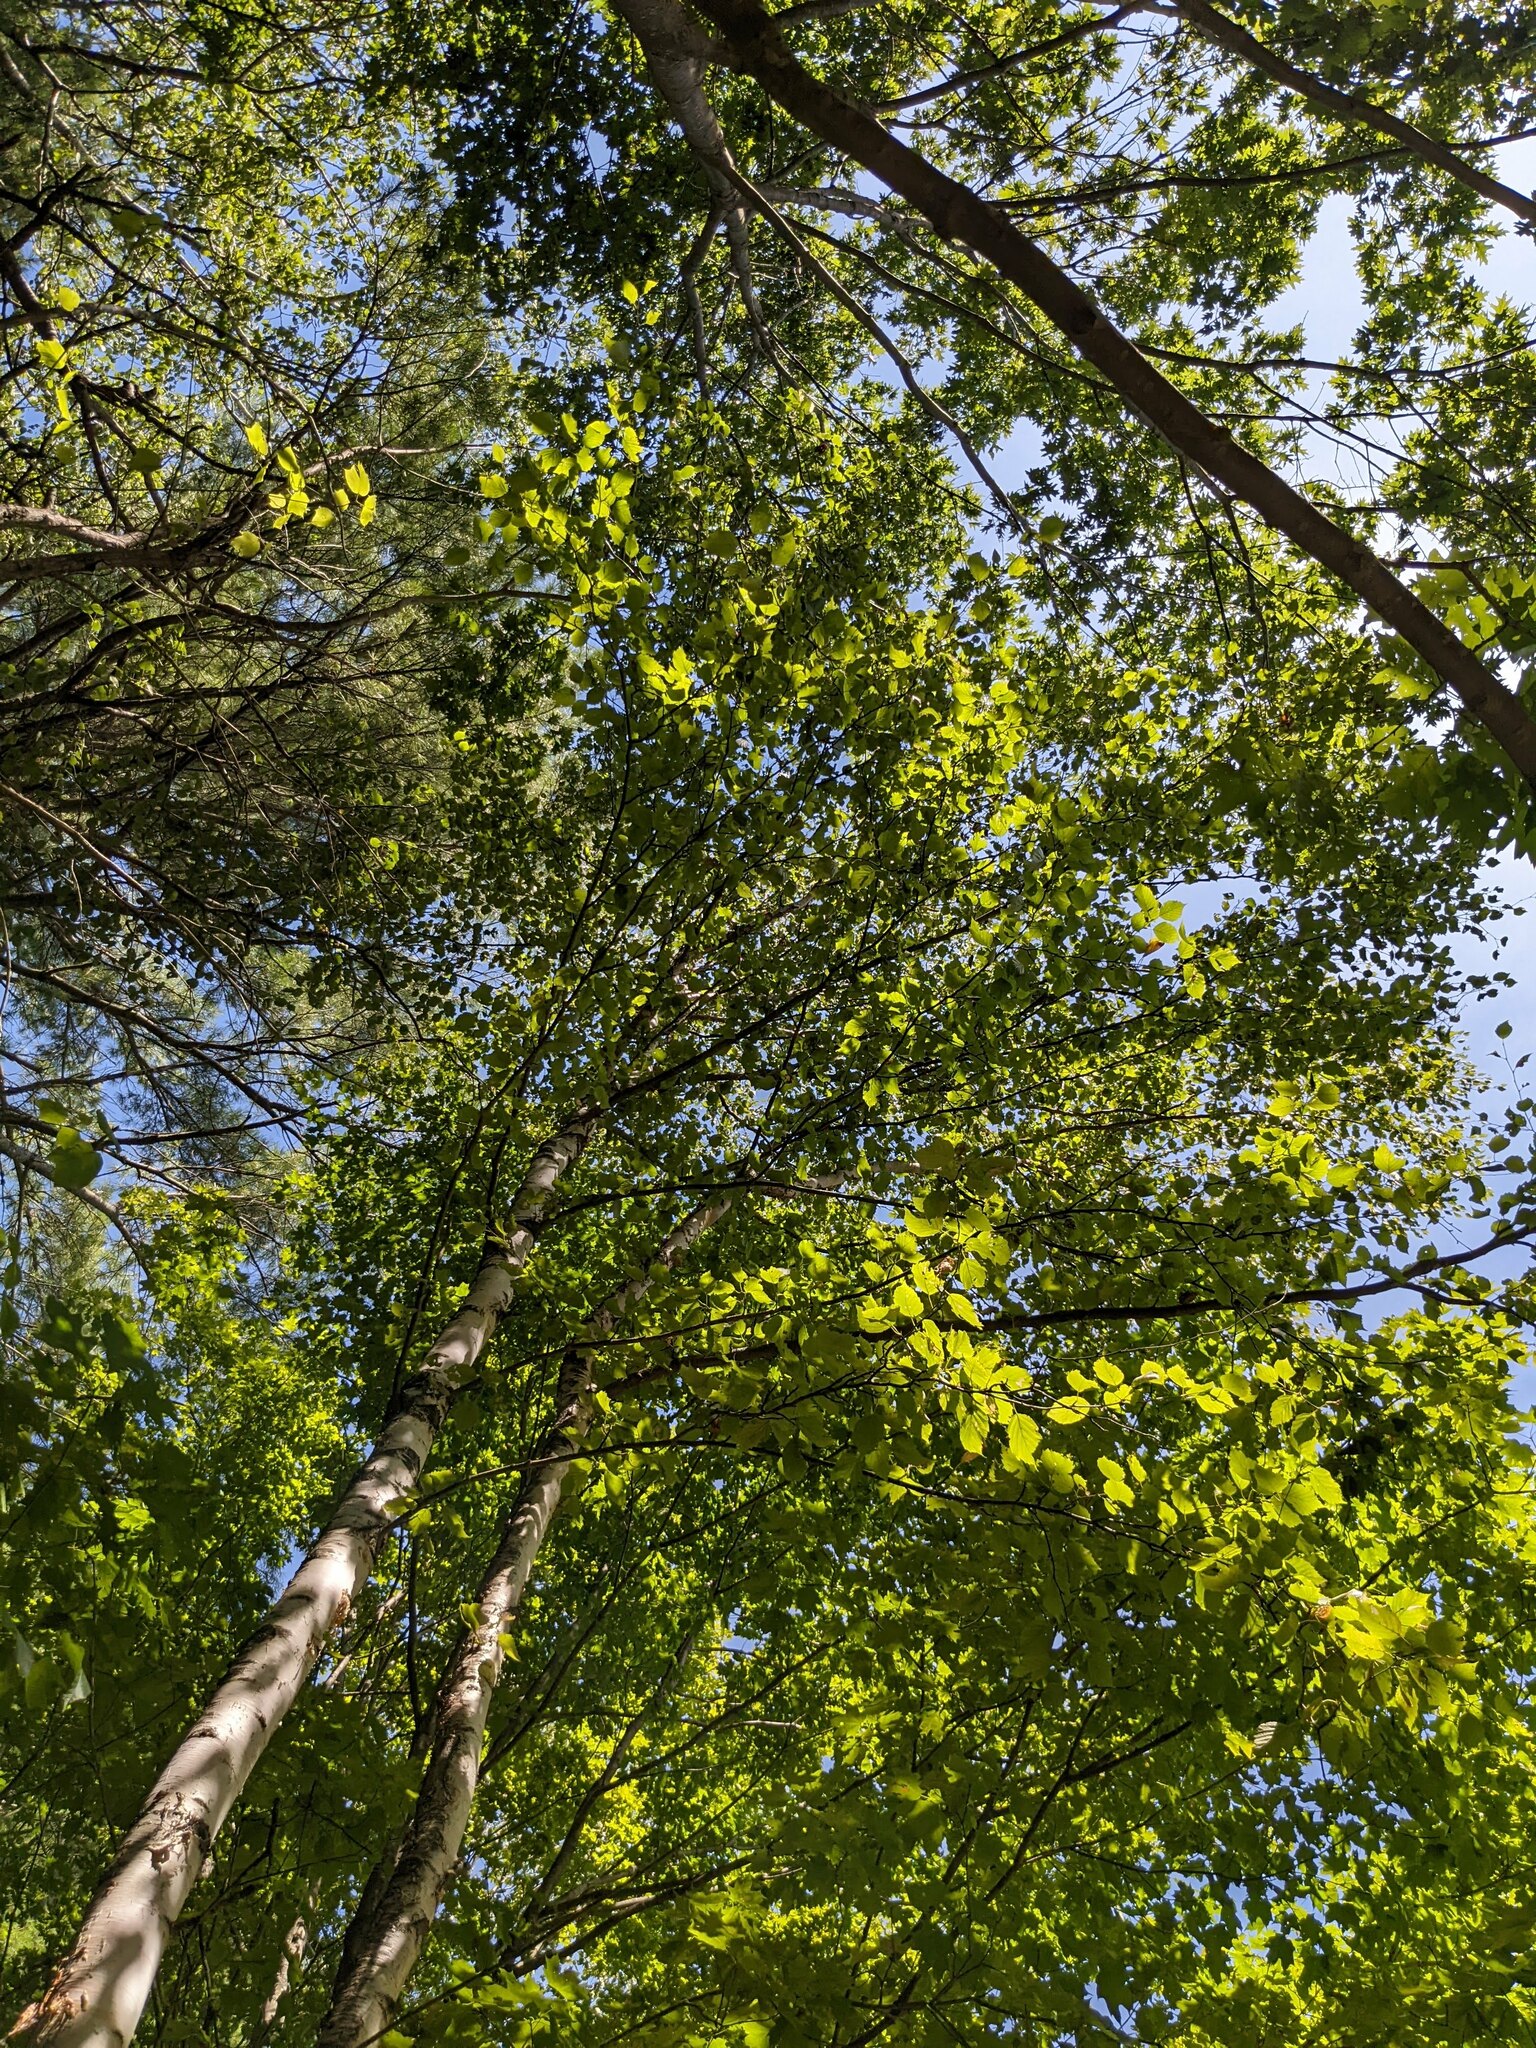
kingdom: Plantae
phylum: Tracheophyta
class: Magnoliopsida
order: Fagales
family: Betulaceae
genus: Betula
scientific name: Betula papyrifera
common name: Paper birch
